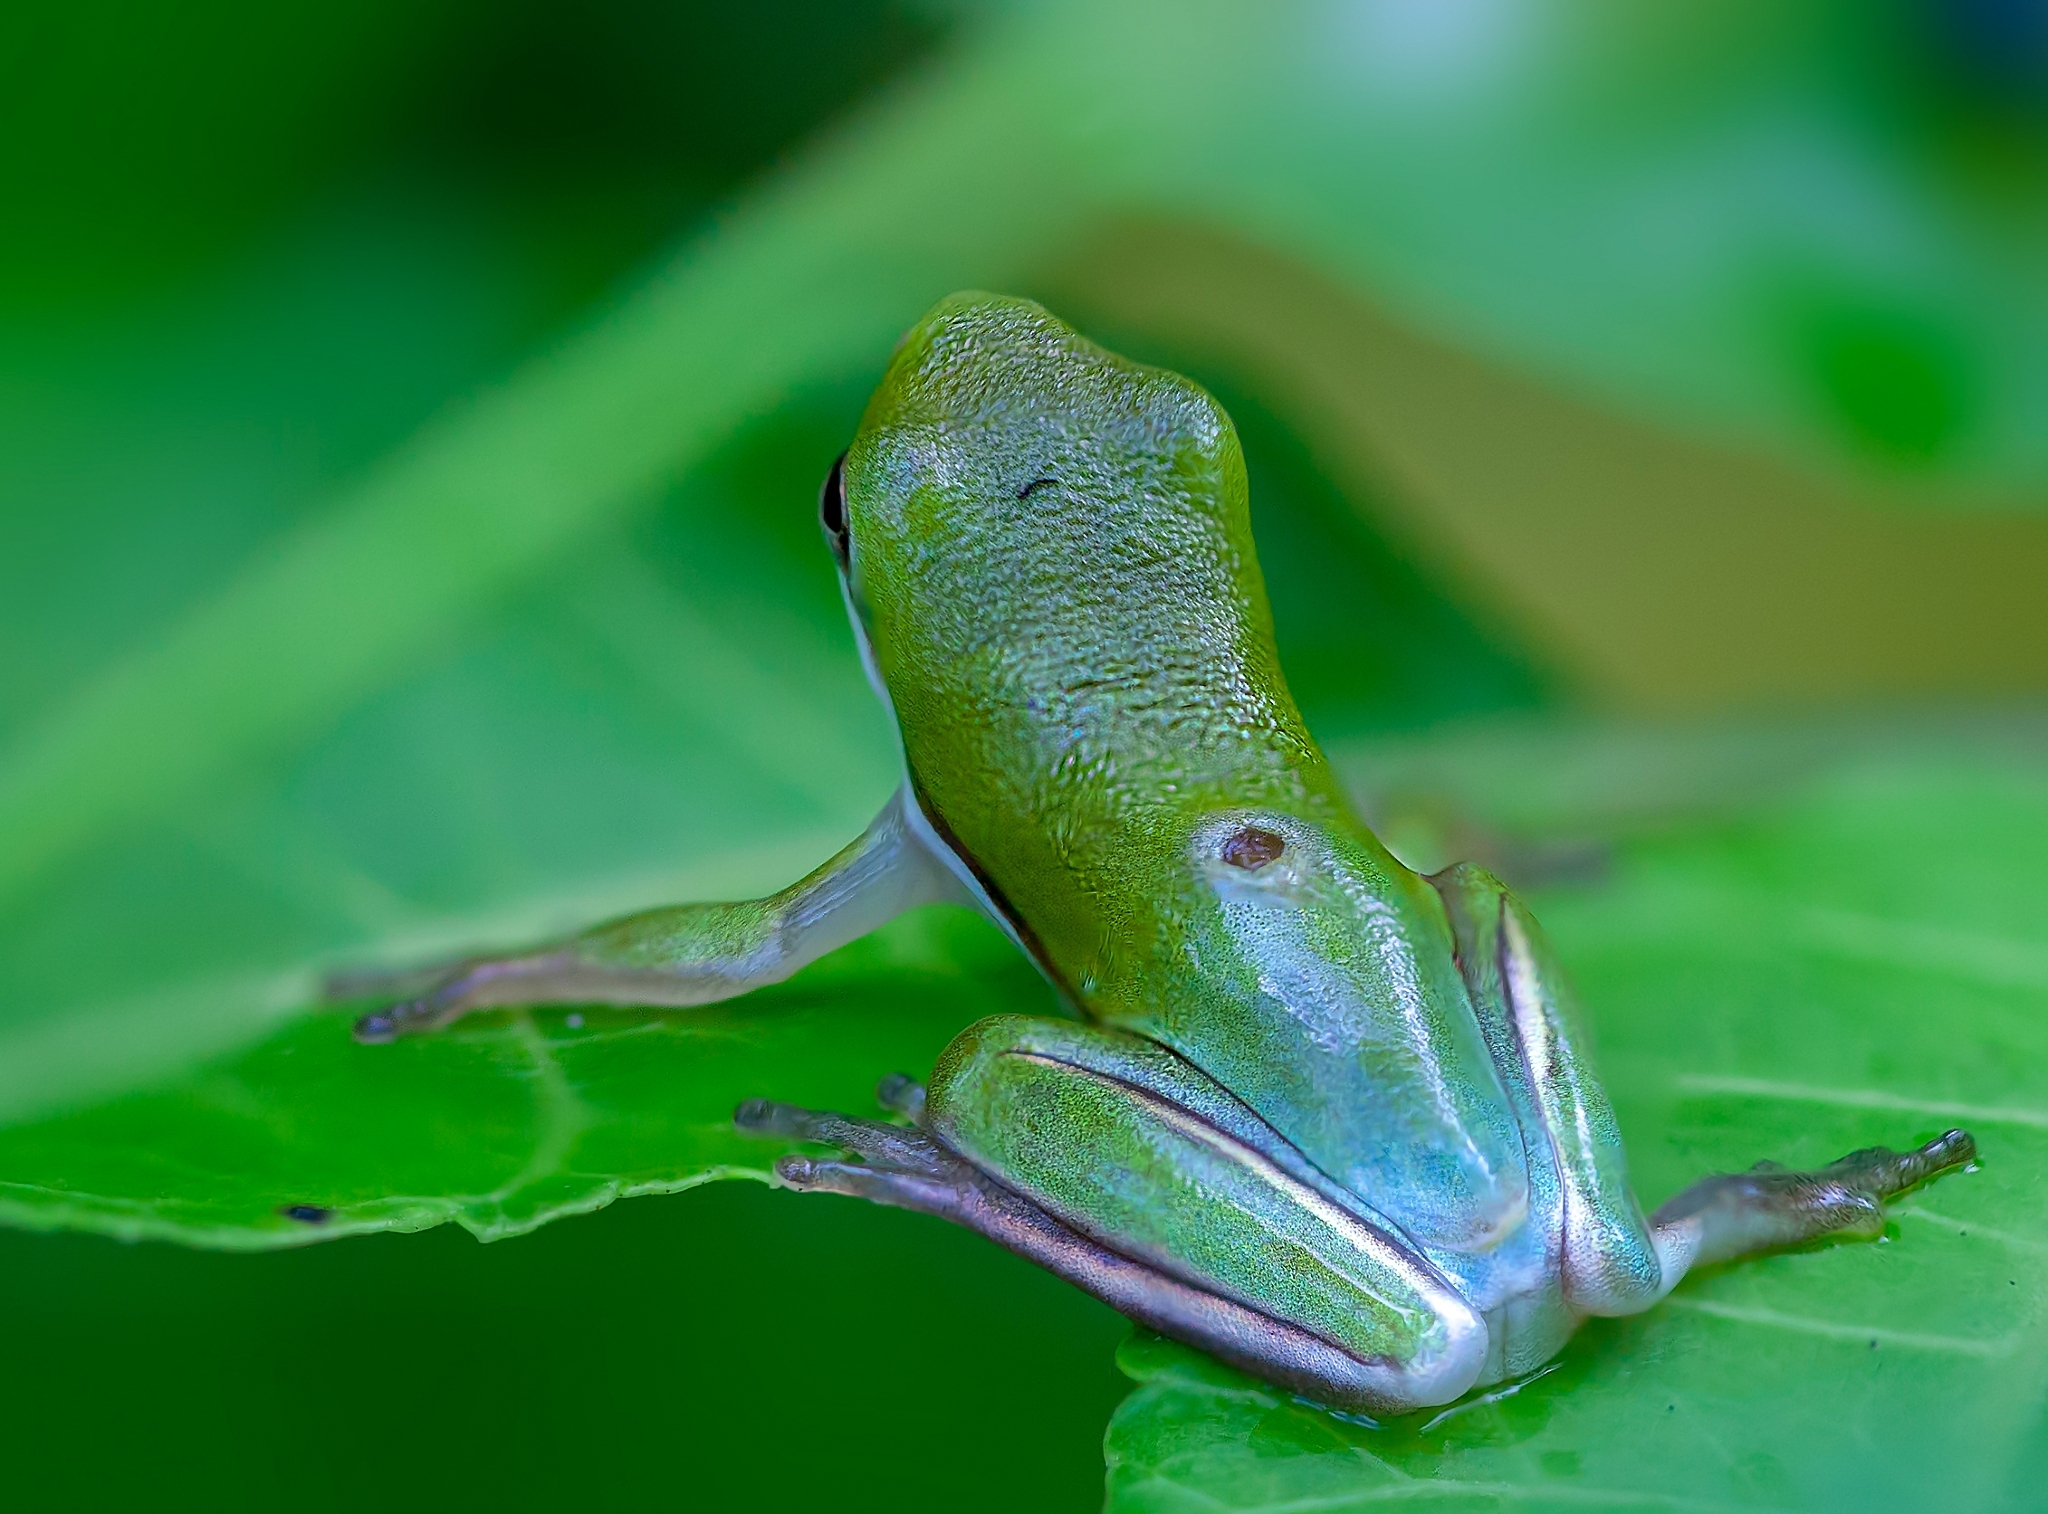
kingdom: Animalia
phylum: Chordata
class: Amphibia
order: Anura
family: Hylidae
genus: Dryophytes
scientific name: Dryophytes cinereus
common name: Green treefrog
